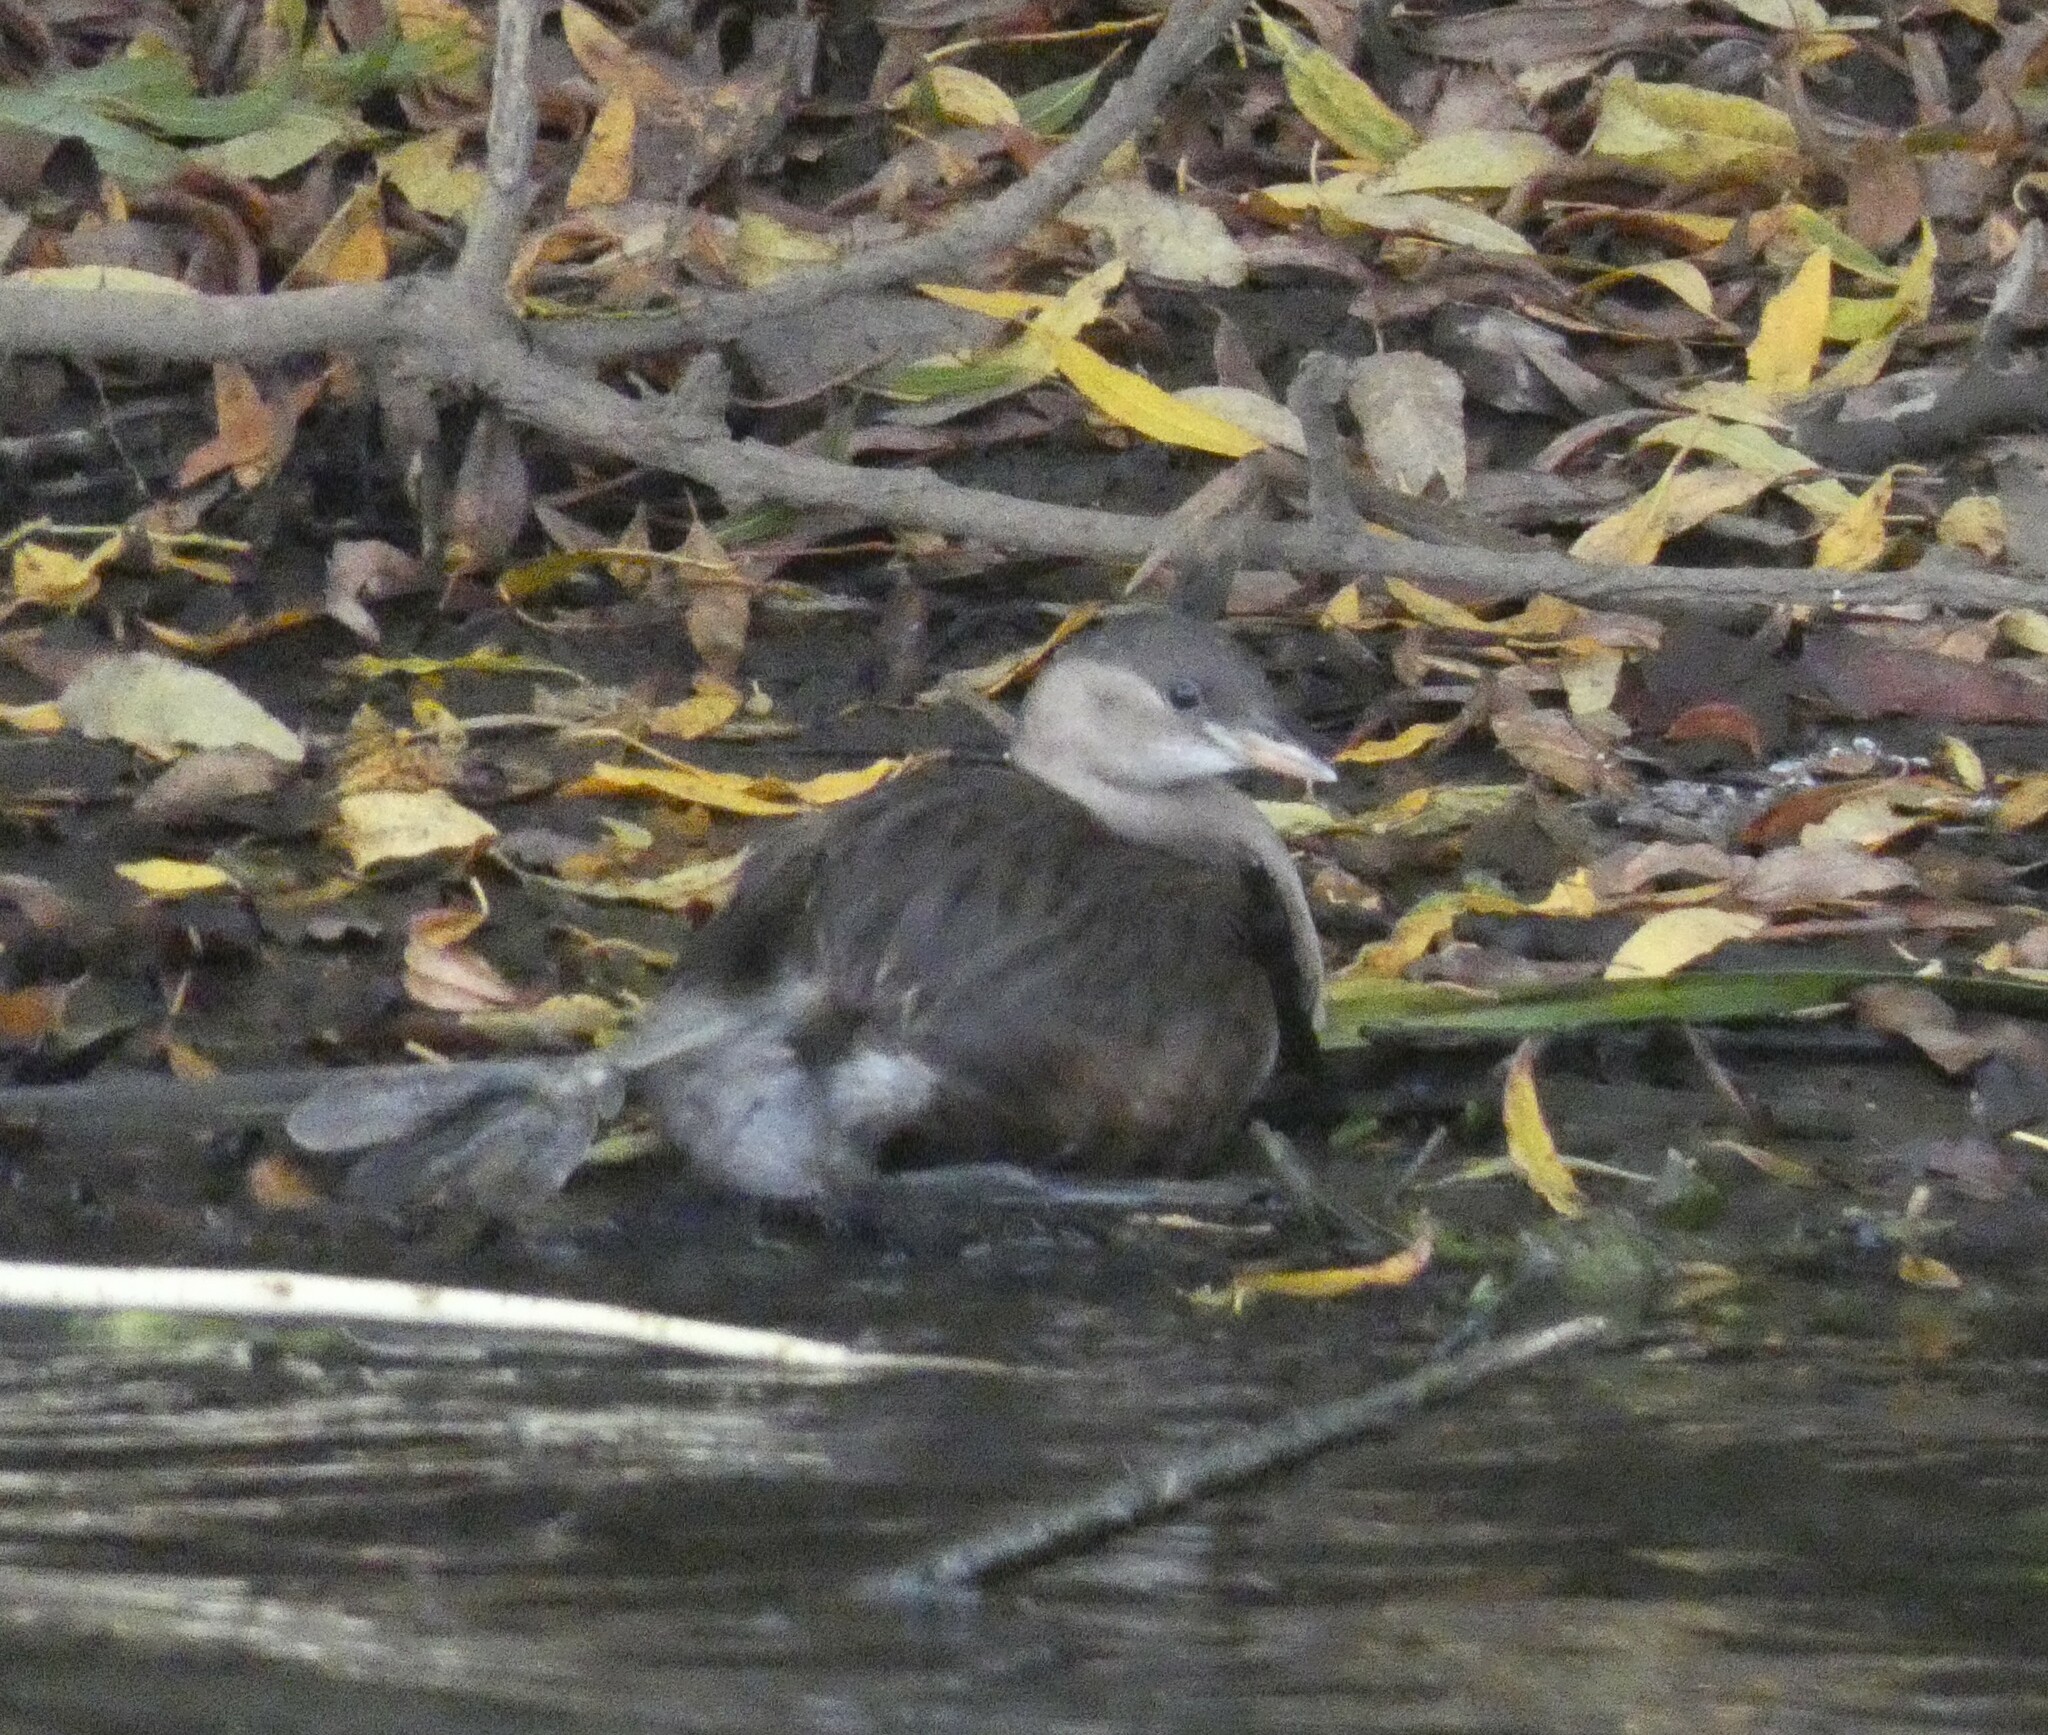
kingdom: Animalia
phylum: Chordata
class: Aves
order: Podicipediformes
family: Podicipedidae
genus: Tachybaptus
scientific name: Tachybaptus ruficollis
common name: Little grebe
